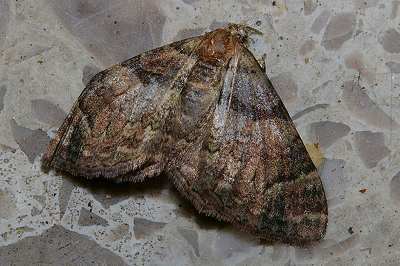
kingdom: Animalia
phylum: Arthropoda
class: Insecta
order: Lepidoptera
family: Geometridae
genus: Microcalcarifera
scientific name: Microcalcarifera obscura
